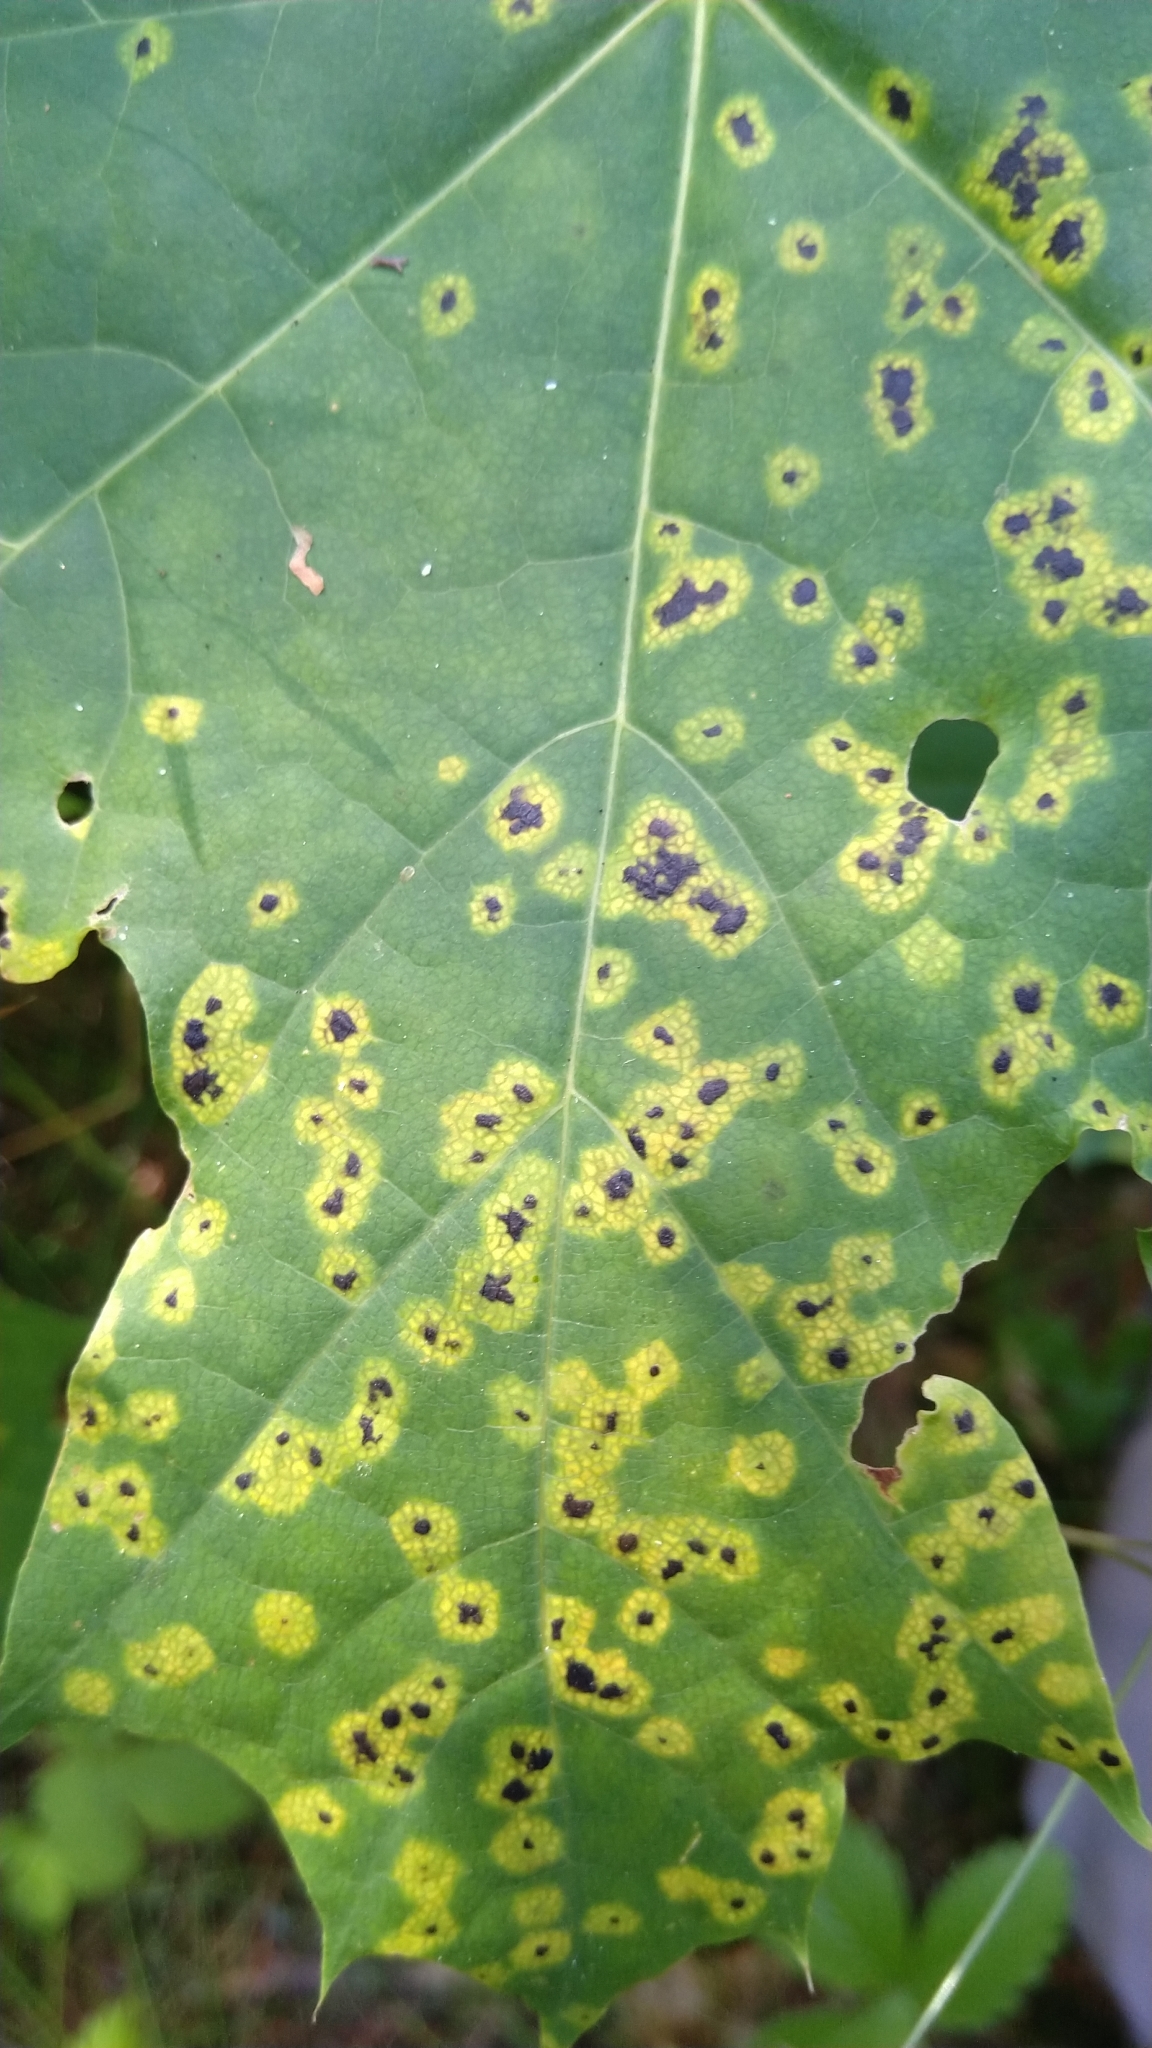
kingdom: Fungi
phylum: Ascomycota
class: Leotiomycetes
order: Rhytismatales
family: Rhytismataceae
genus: Rhytisma
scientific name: Rhytisma acerinum
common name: European tar spot
